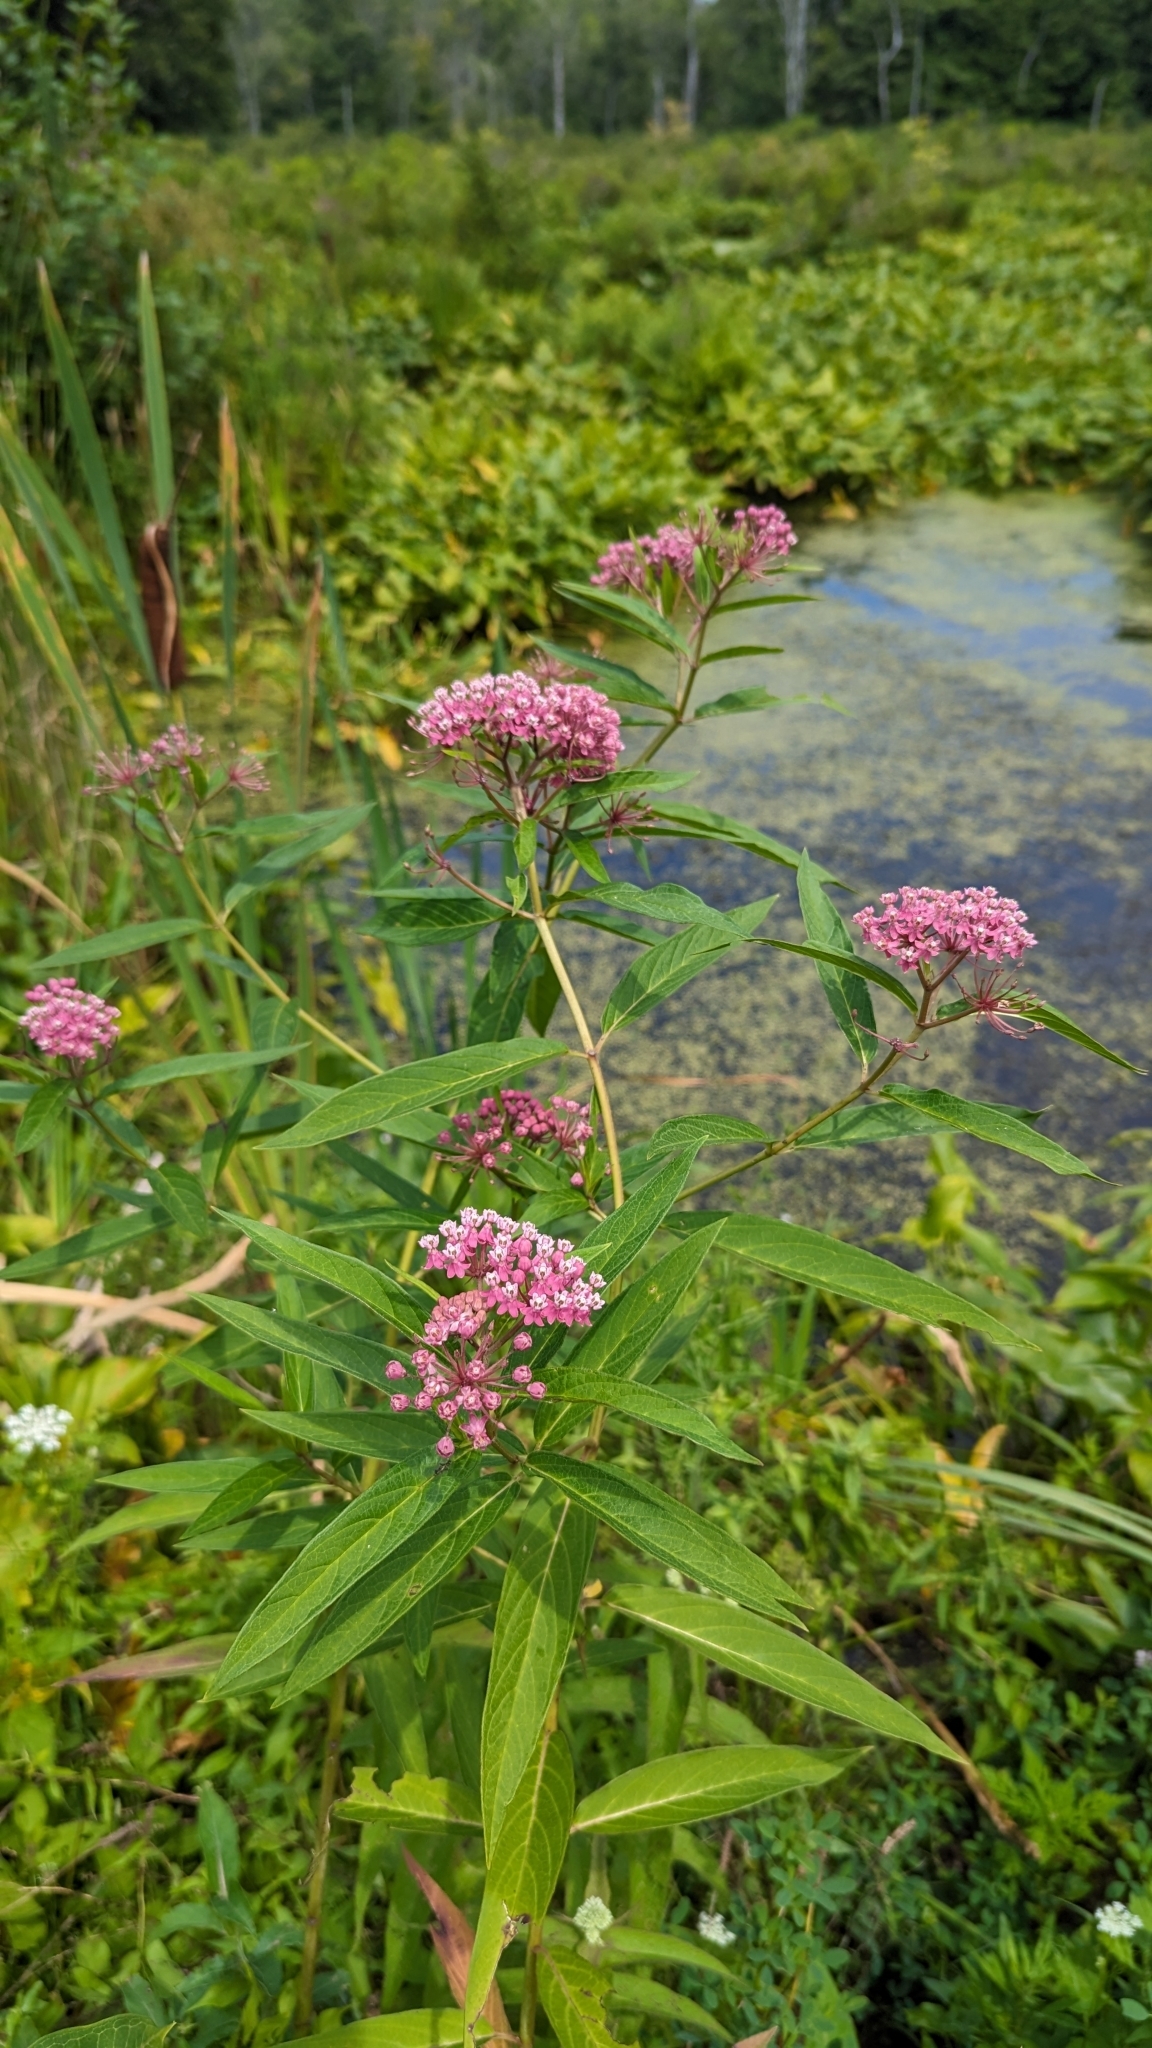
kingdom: Plantae
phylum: Tracheophyta
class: Magnoliopsida
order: Gentianales
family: Apocynaceae
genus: Asclepias
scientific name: Asclepias incarnata
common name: Swamp milkweed
